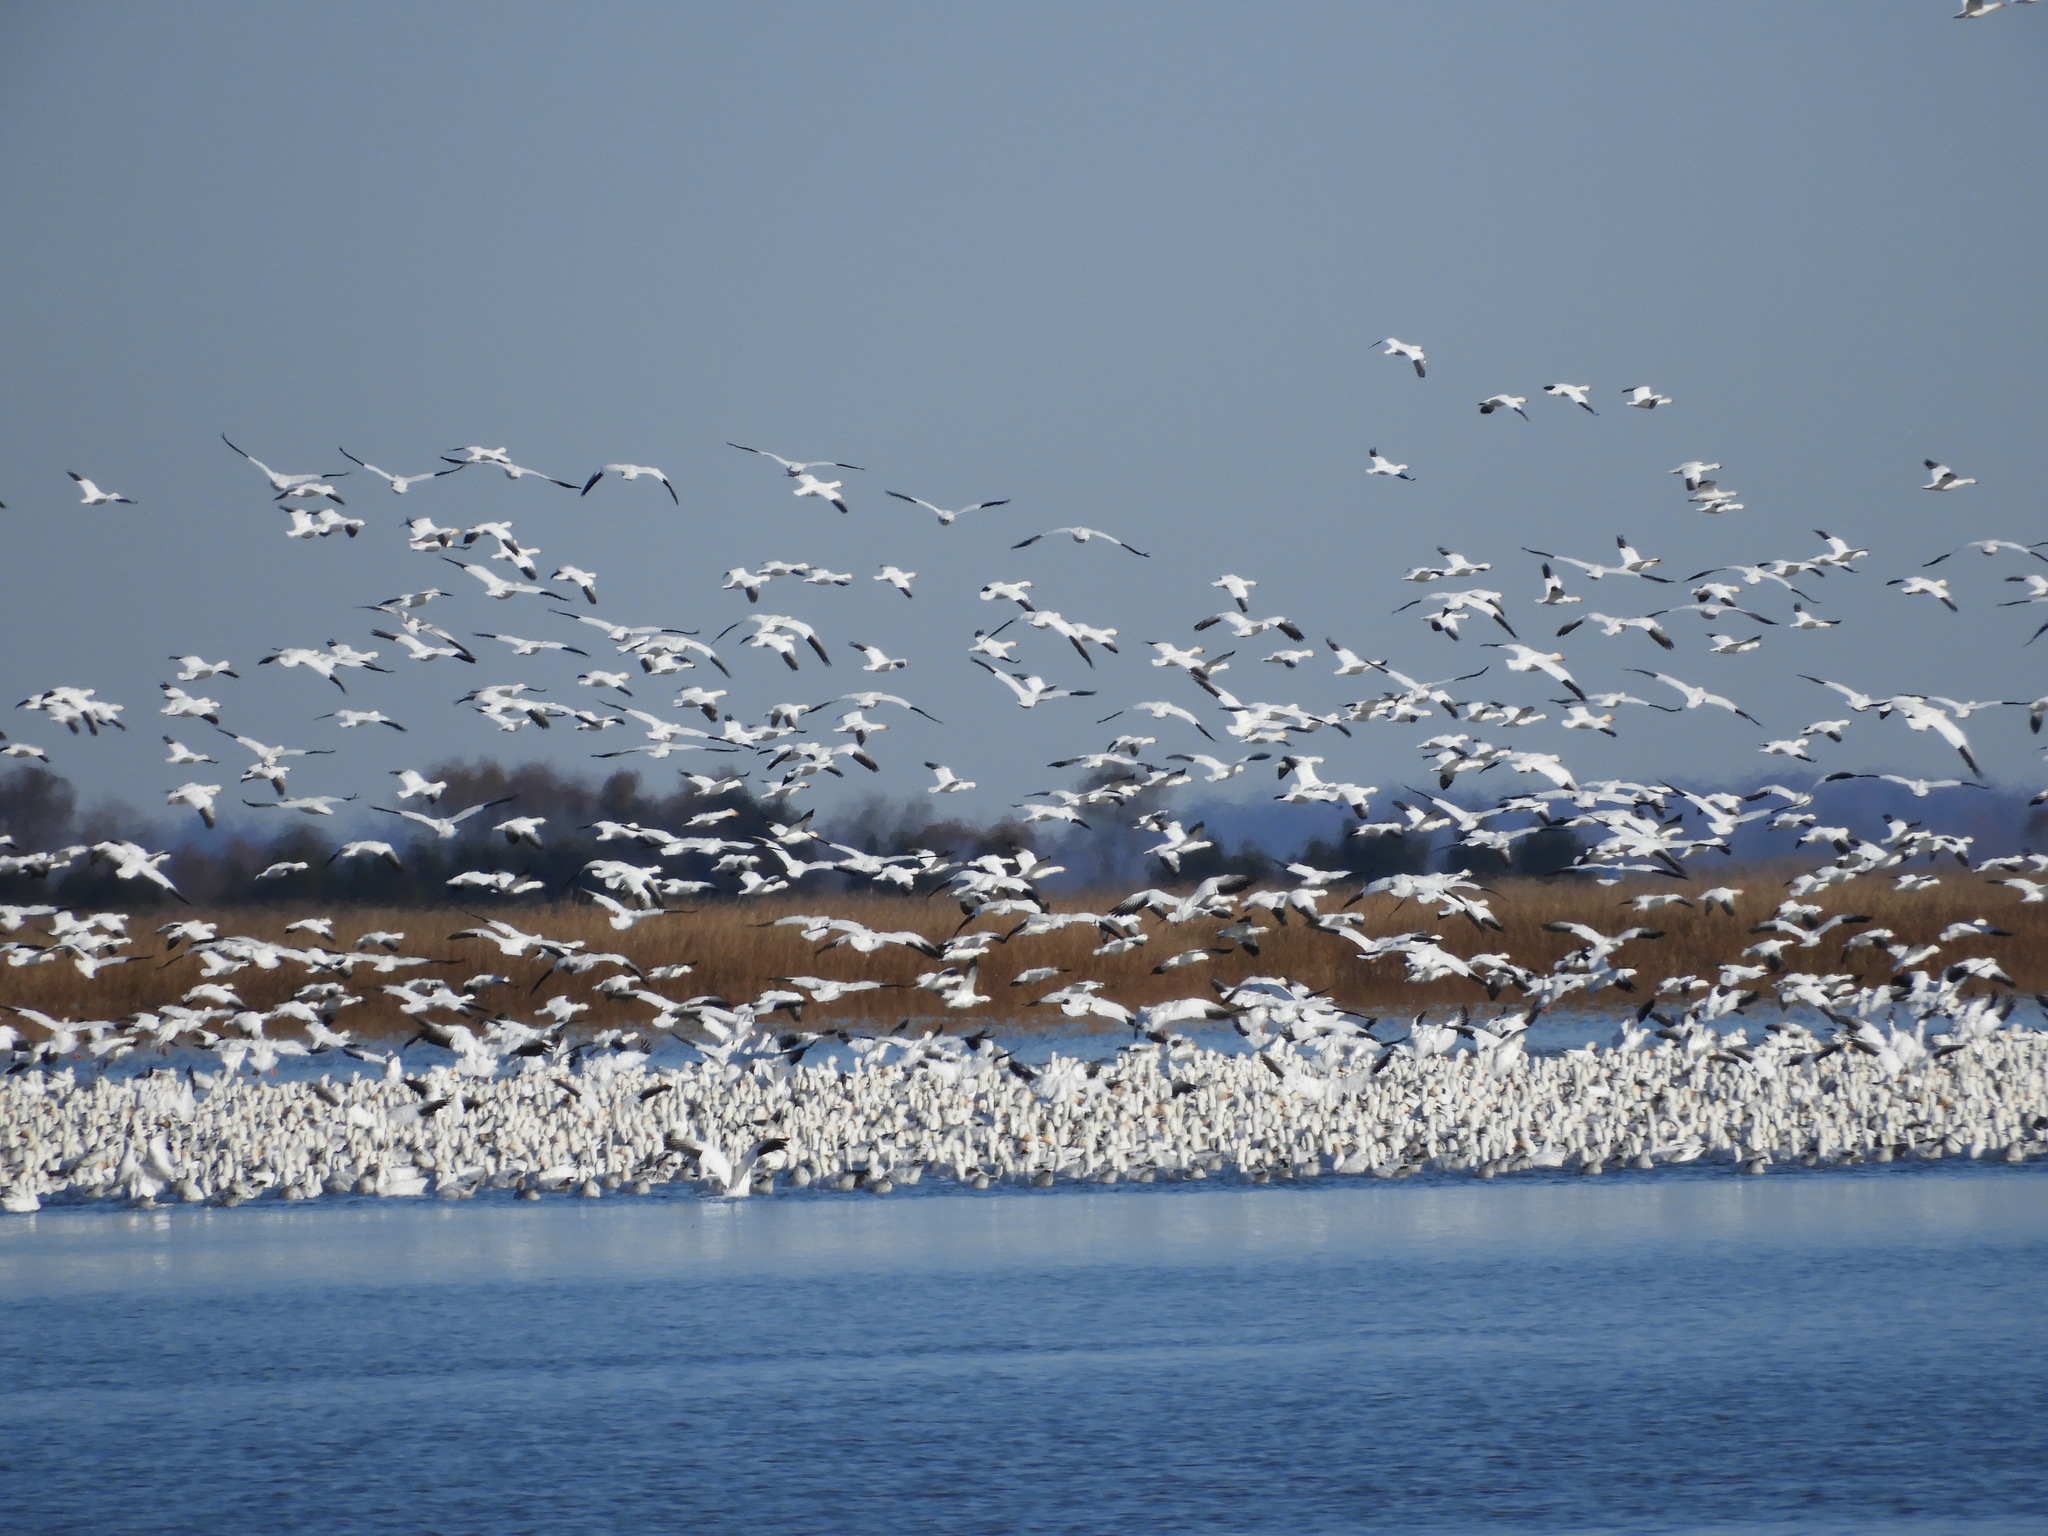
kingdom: Animalia
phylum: Chordata
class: Aves
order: Anseriformes
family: Anatidae
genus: Anser
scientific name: Anser caerulescens
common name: Snow goose
